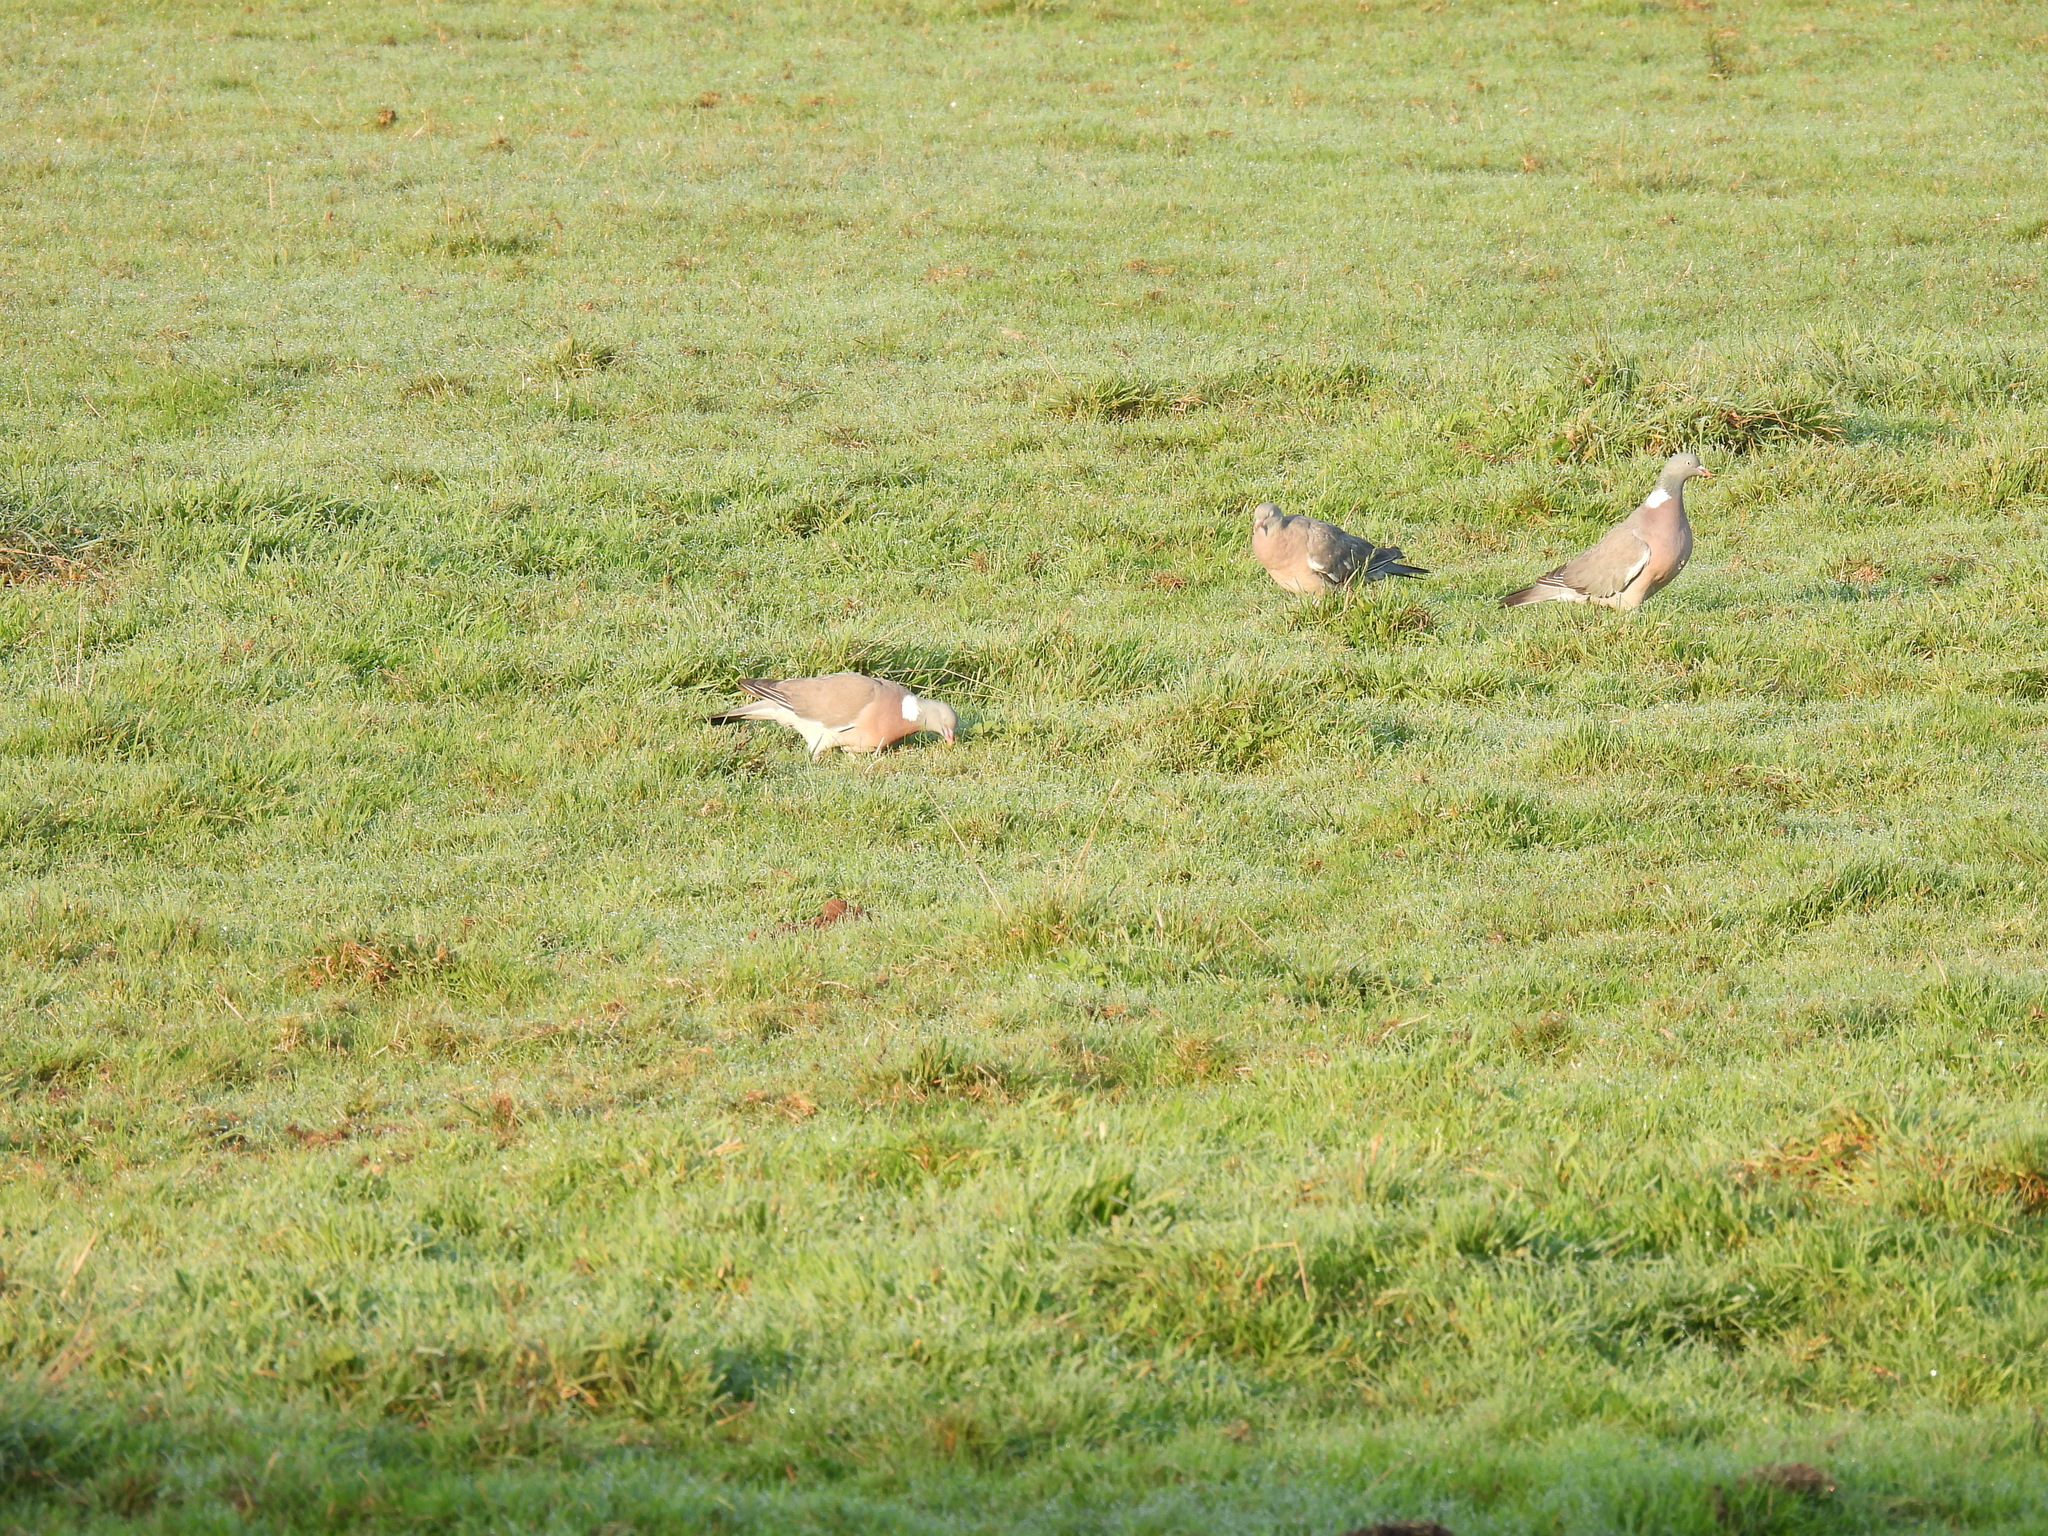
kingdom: Animalia
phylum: Chordata
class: Aves
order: Columbiformes
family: Columbidae
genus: Columba
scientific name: Columba palumbus
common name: Common wood pigeon
